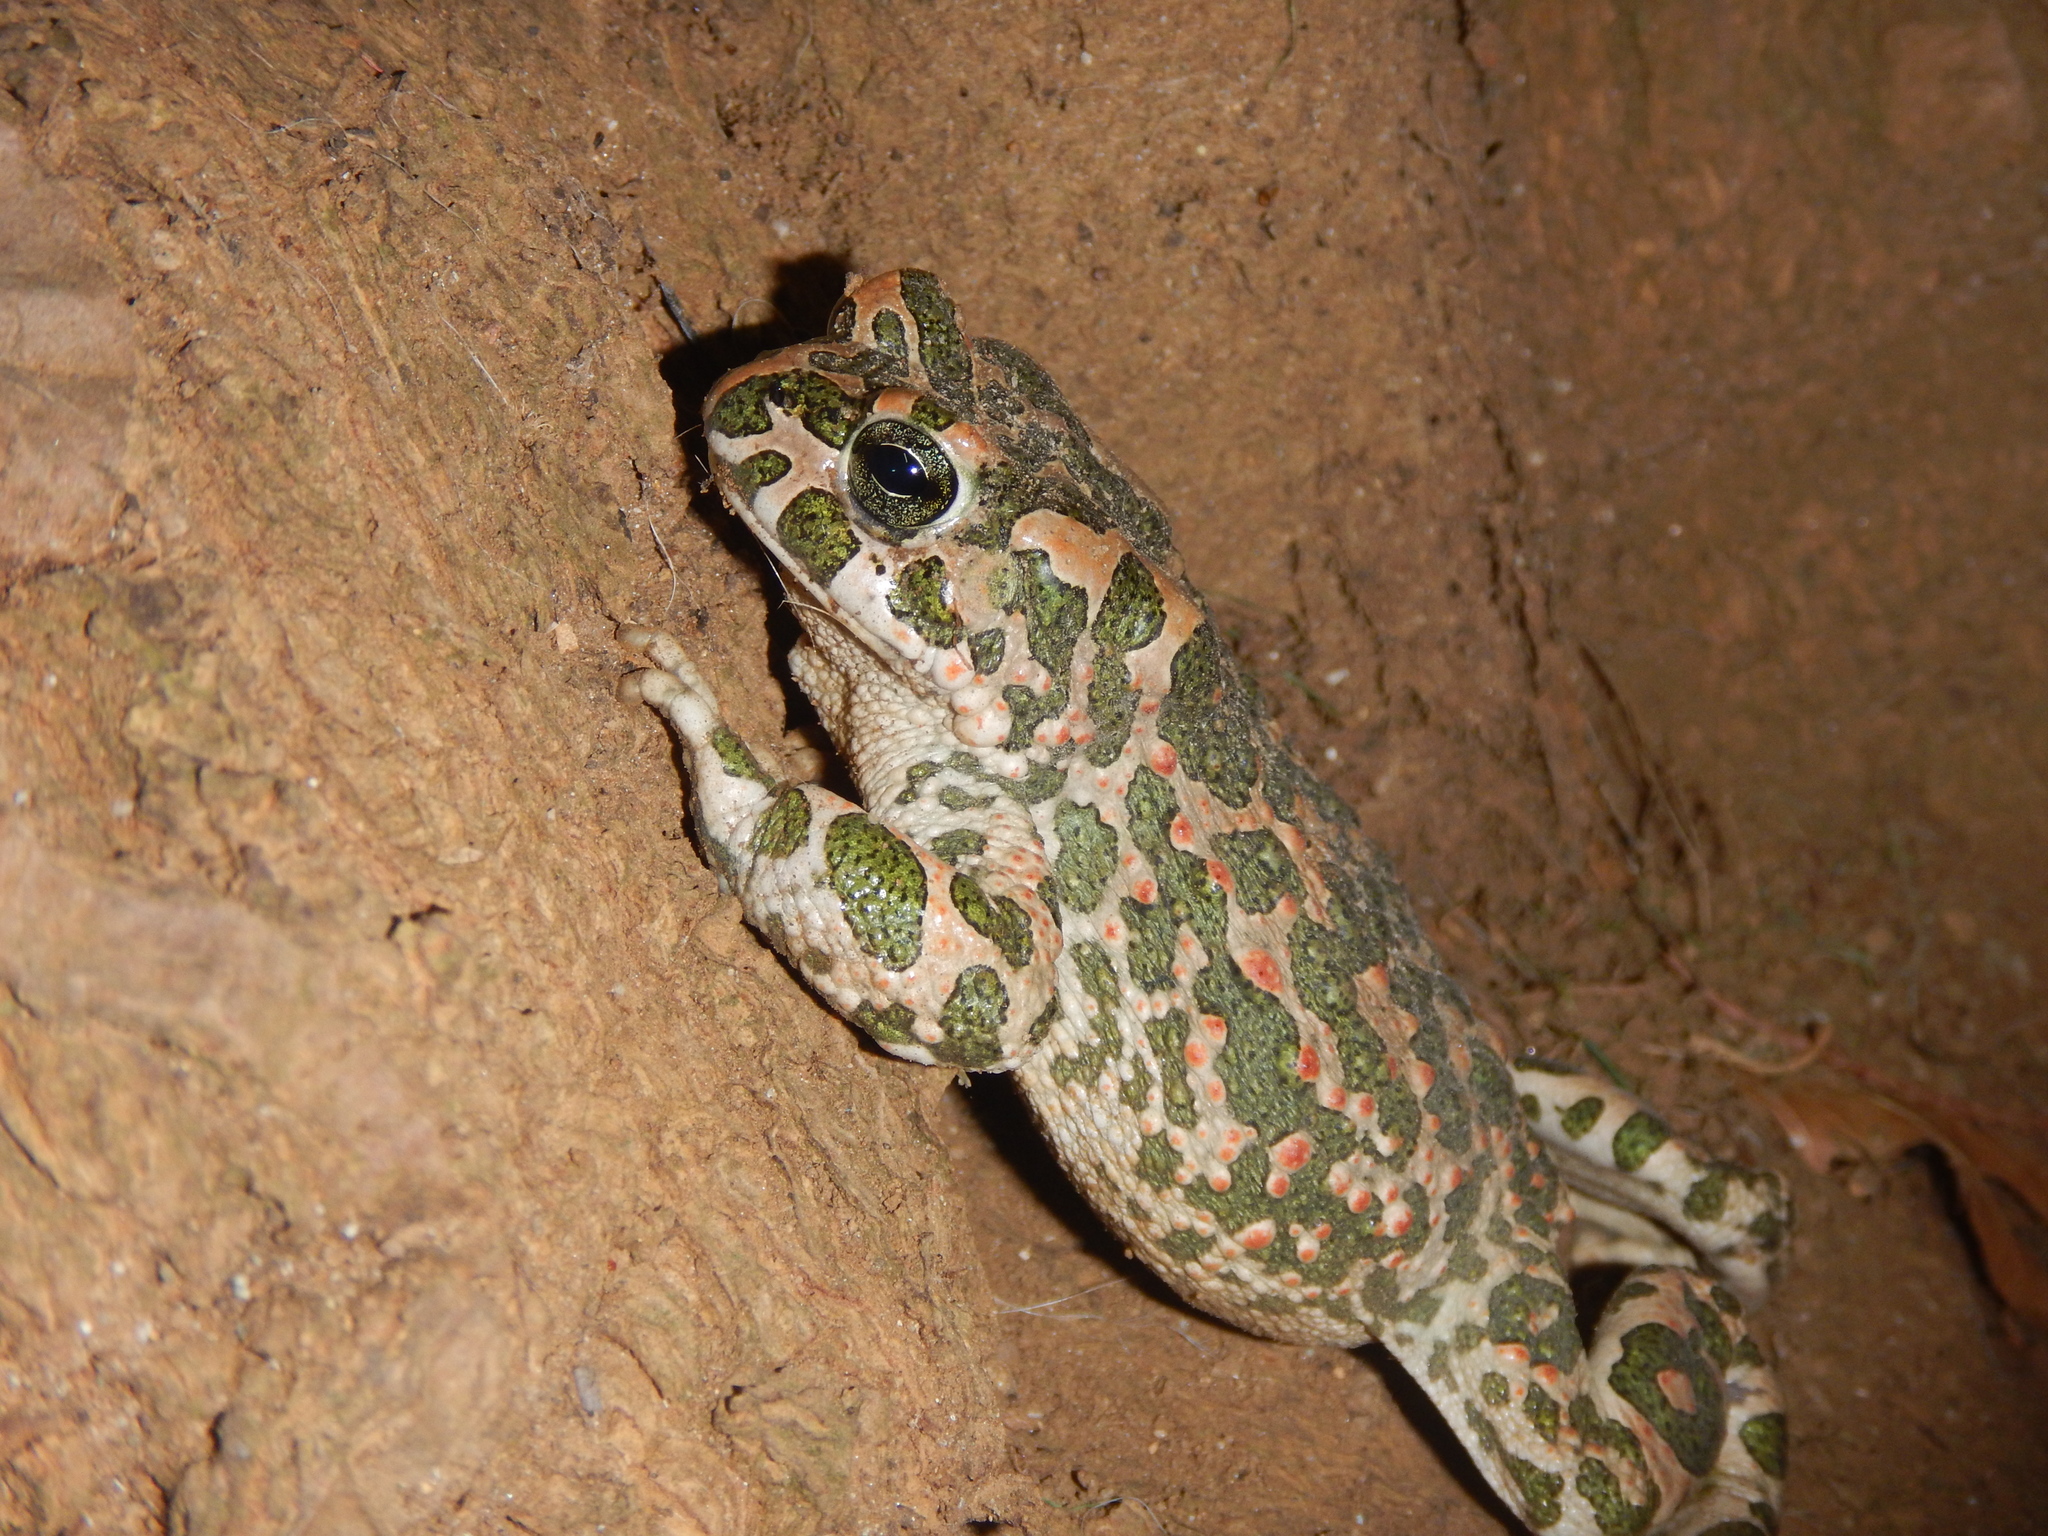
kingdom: Animalia
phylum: Chordata
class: Amphibia
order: Anura
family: Bufonidae
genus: Bufotes
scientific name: Bufotes viridis
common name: European green toad
